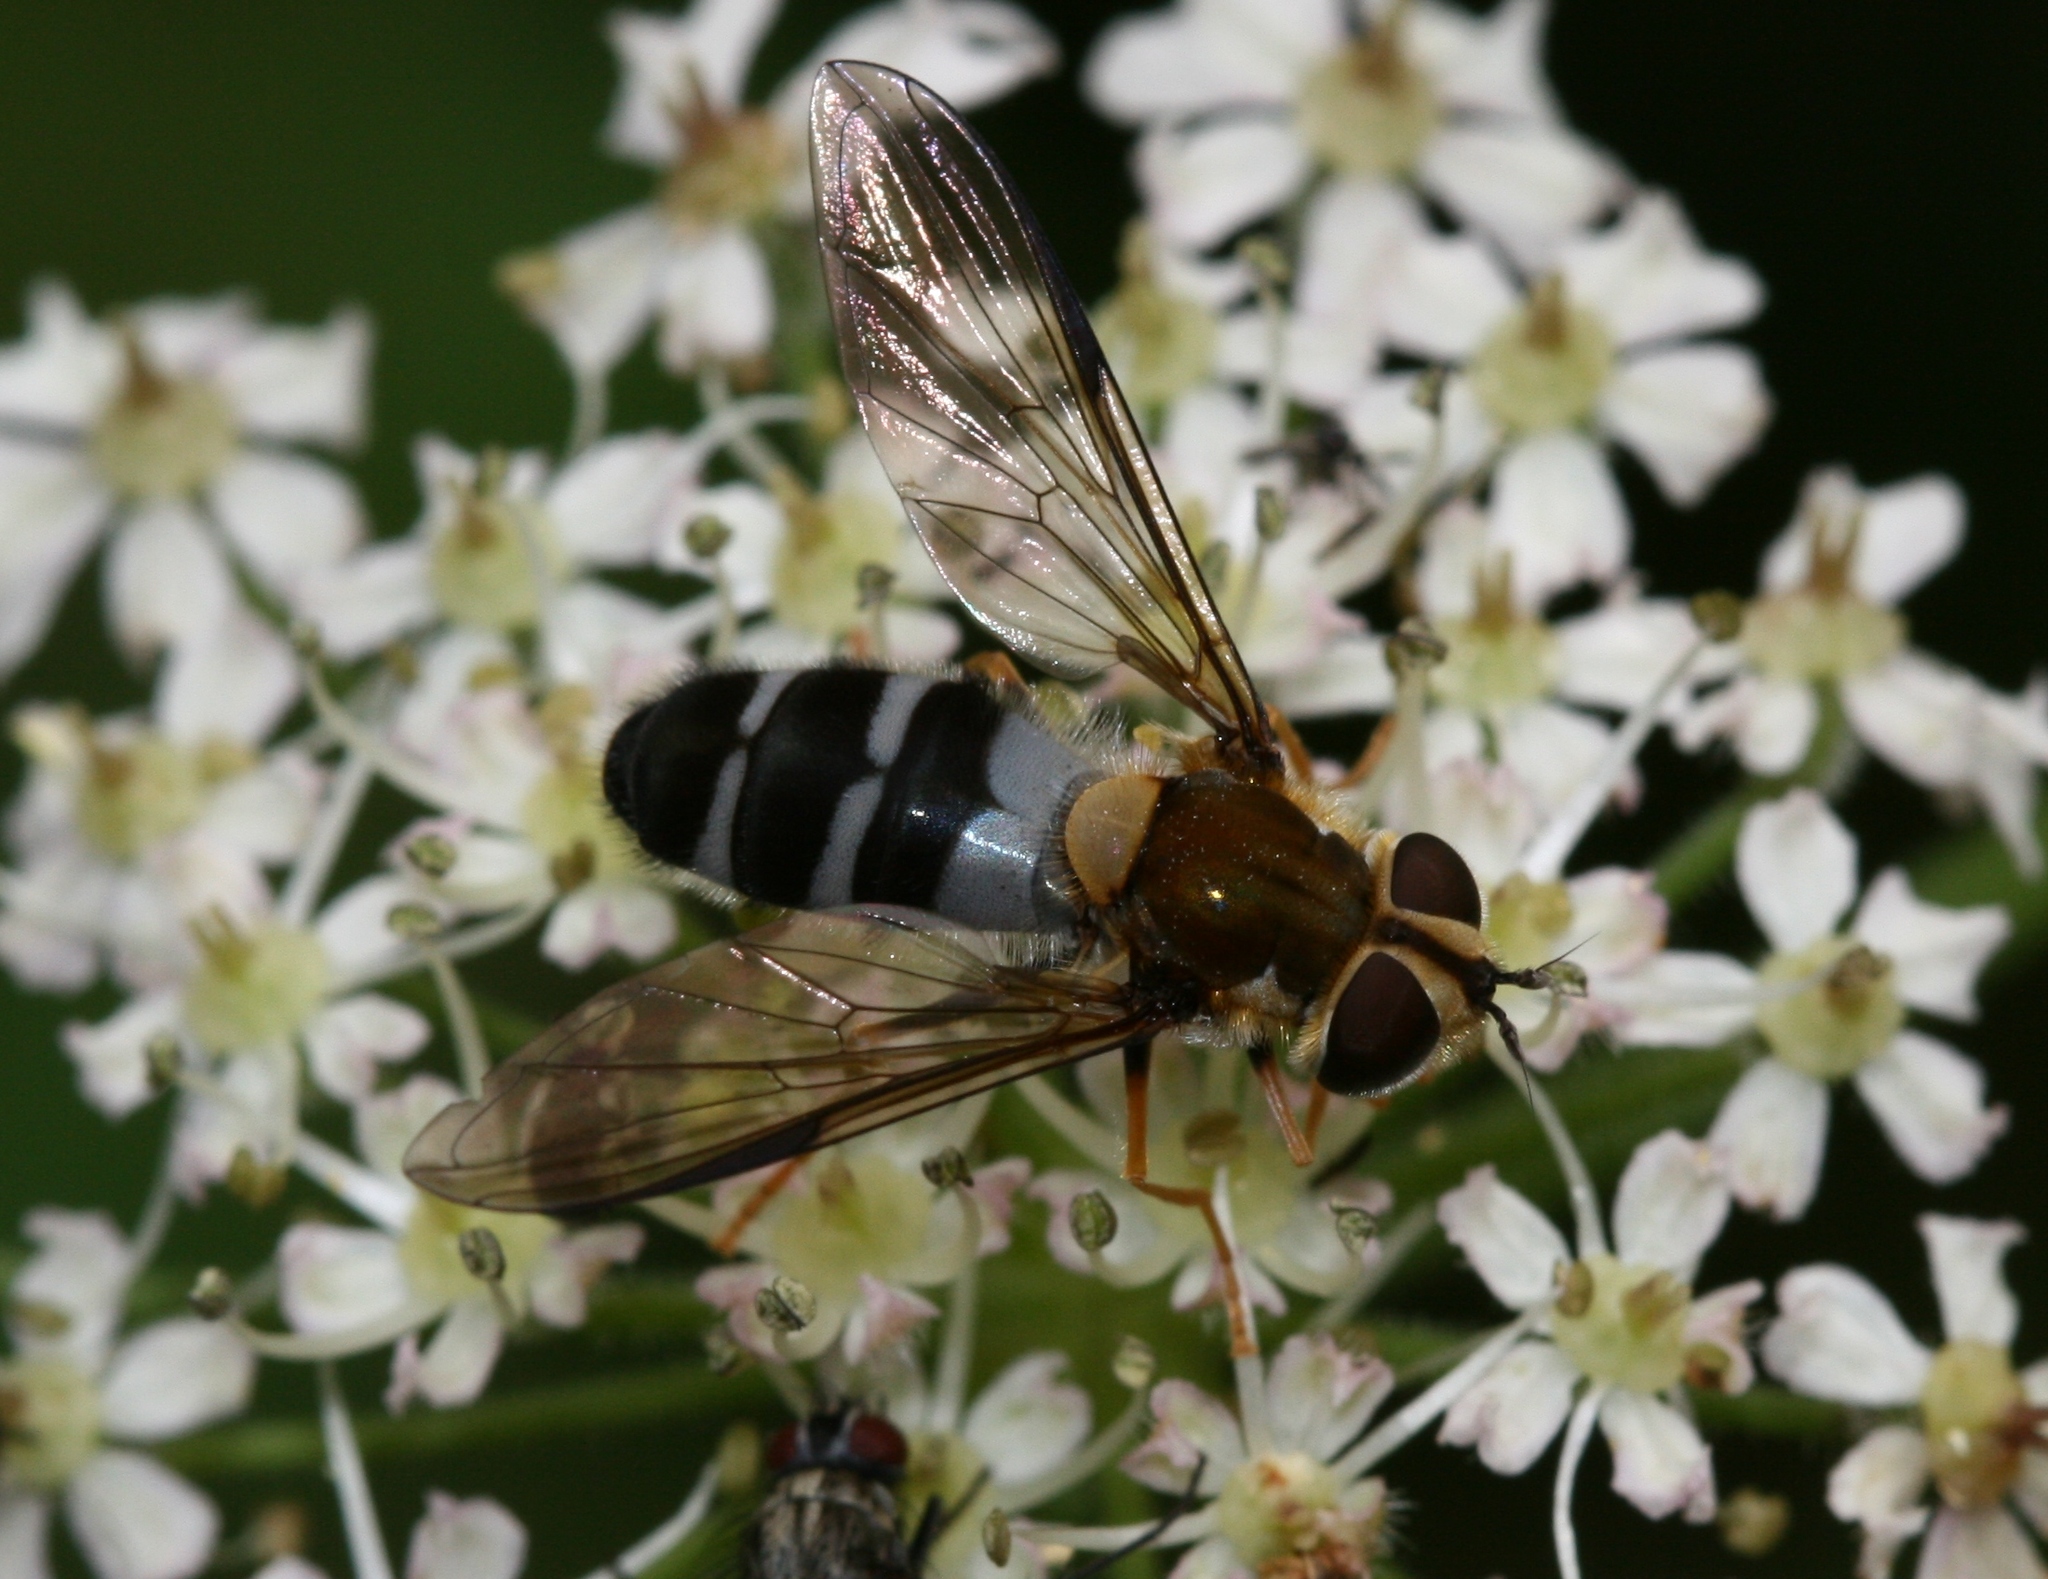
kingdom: Animalia
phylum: Arthropoda
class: Insecta
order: Diptera
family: Syrphidae
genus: Leucozona
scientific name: Leucozona glaucia
